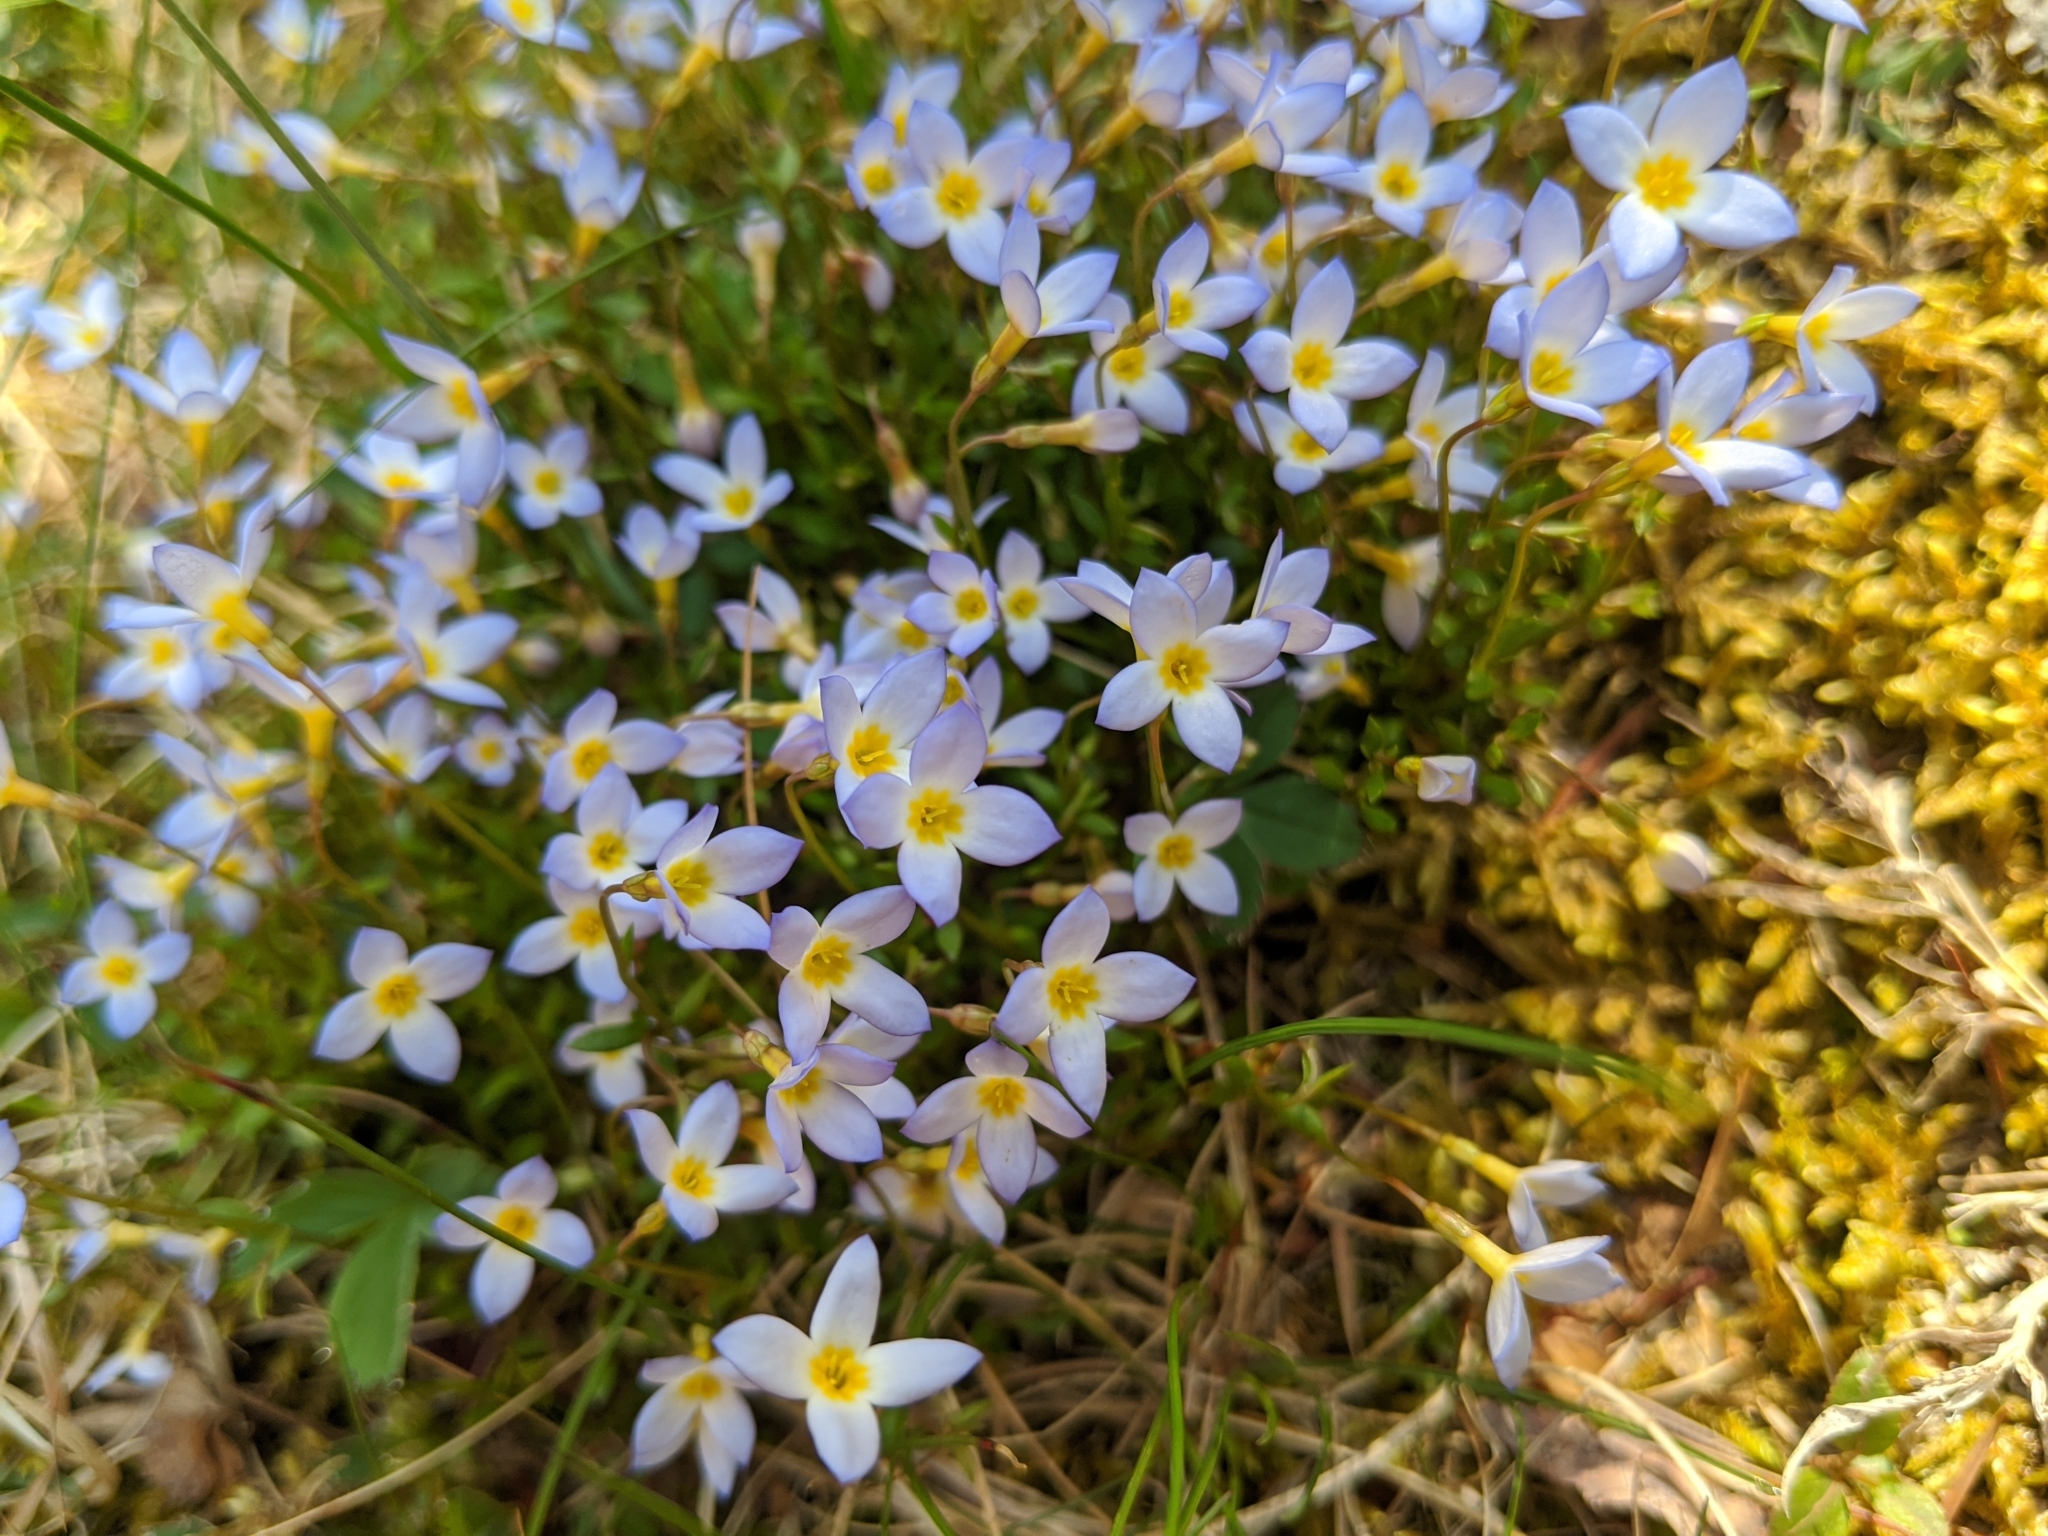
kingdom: Plantae
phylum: Tracheophyta
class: Magnoliopsida
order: Gentianales
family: Rubiaceae
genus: Houstonia
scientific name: Houstonia caerulea
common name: Bluets
